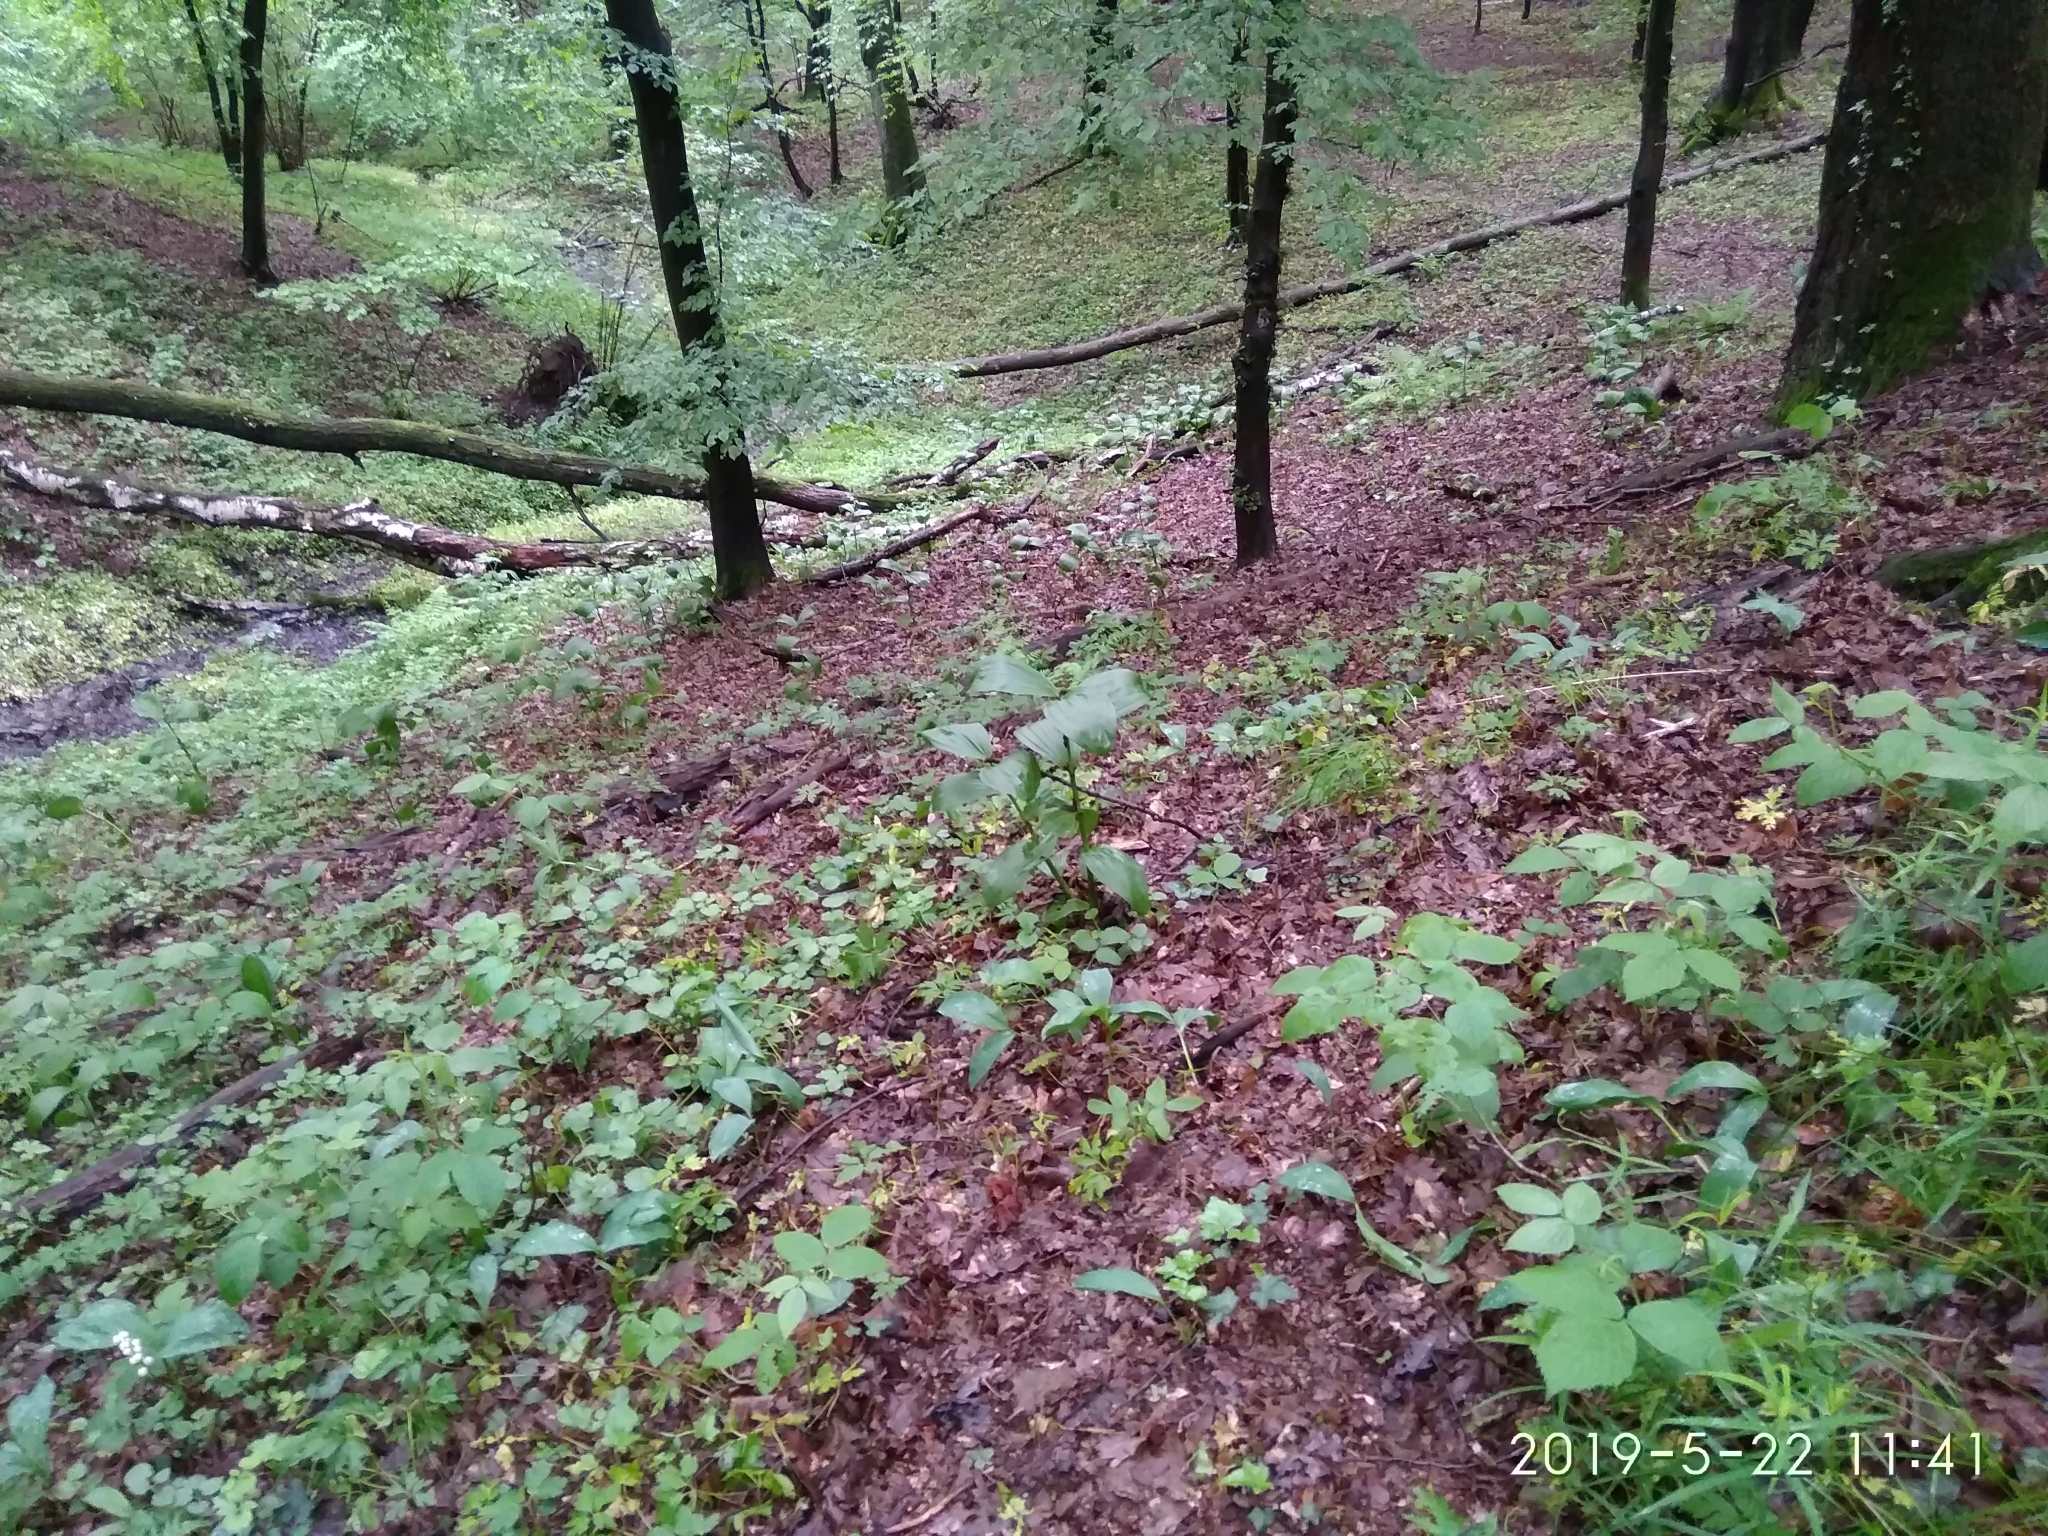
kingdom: Plantae
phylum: Tracheophyta
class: Liliopsida
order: Liliales
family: Melanthiaceae
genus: Veratrum
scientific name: Veratrum lobelianum
